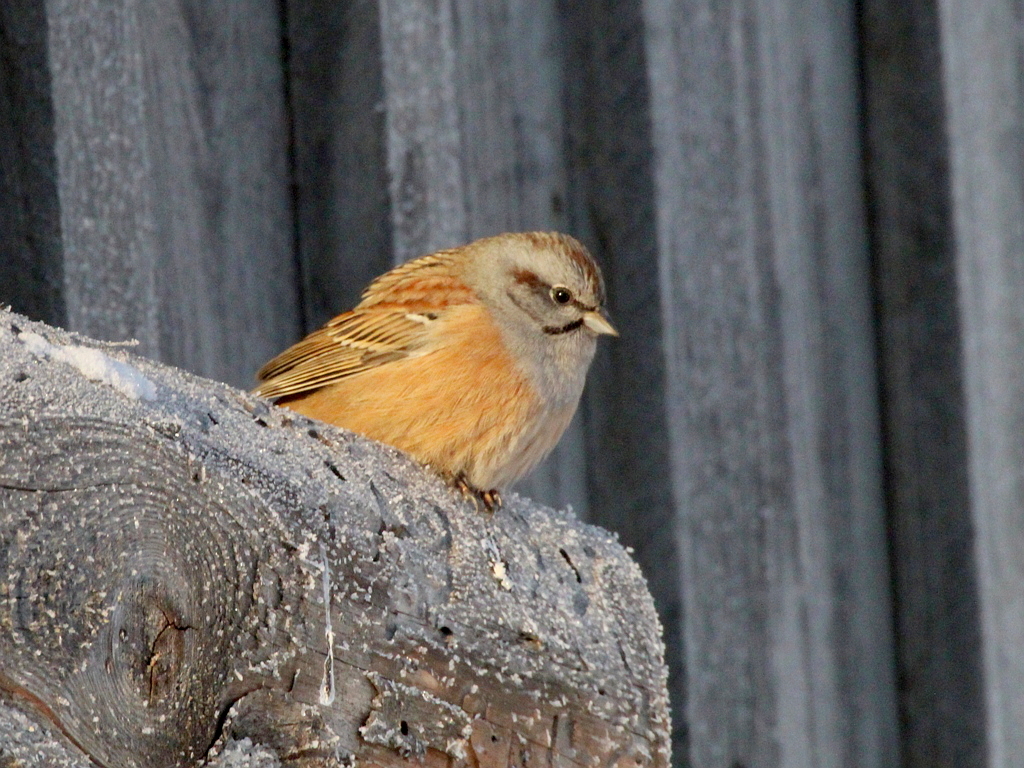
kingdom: Animalia
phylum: Chordata
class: Aves
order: Passeriformes
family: Emberizidae
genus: Emberiza
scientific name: Emberiza godlewskii
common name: Godlewski's bunting
